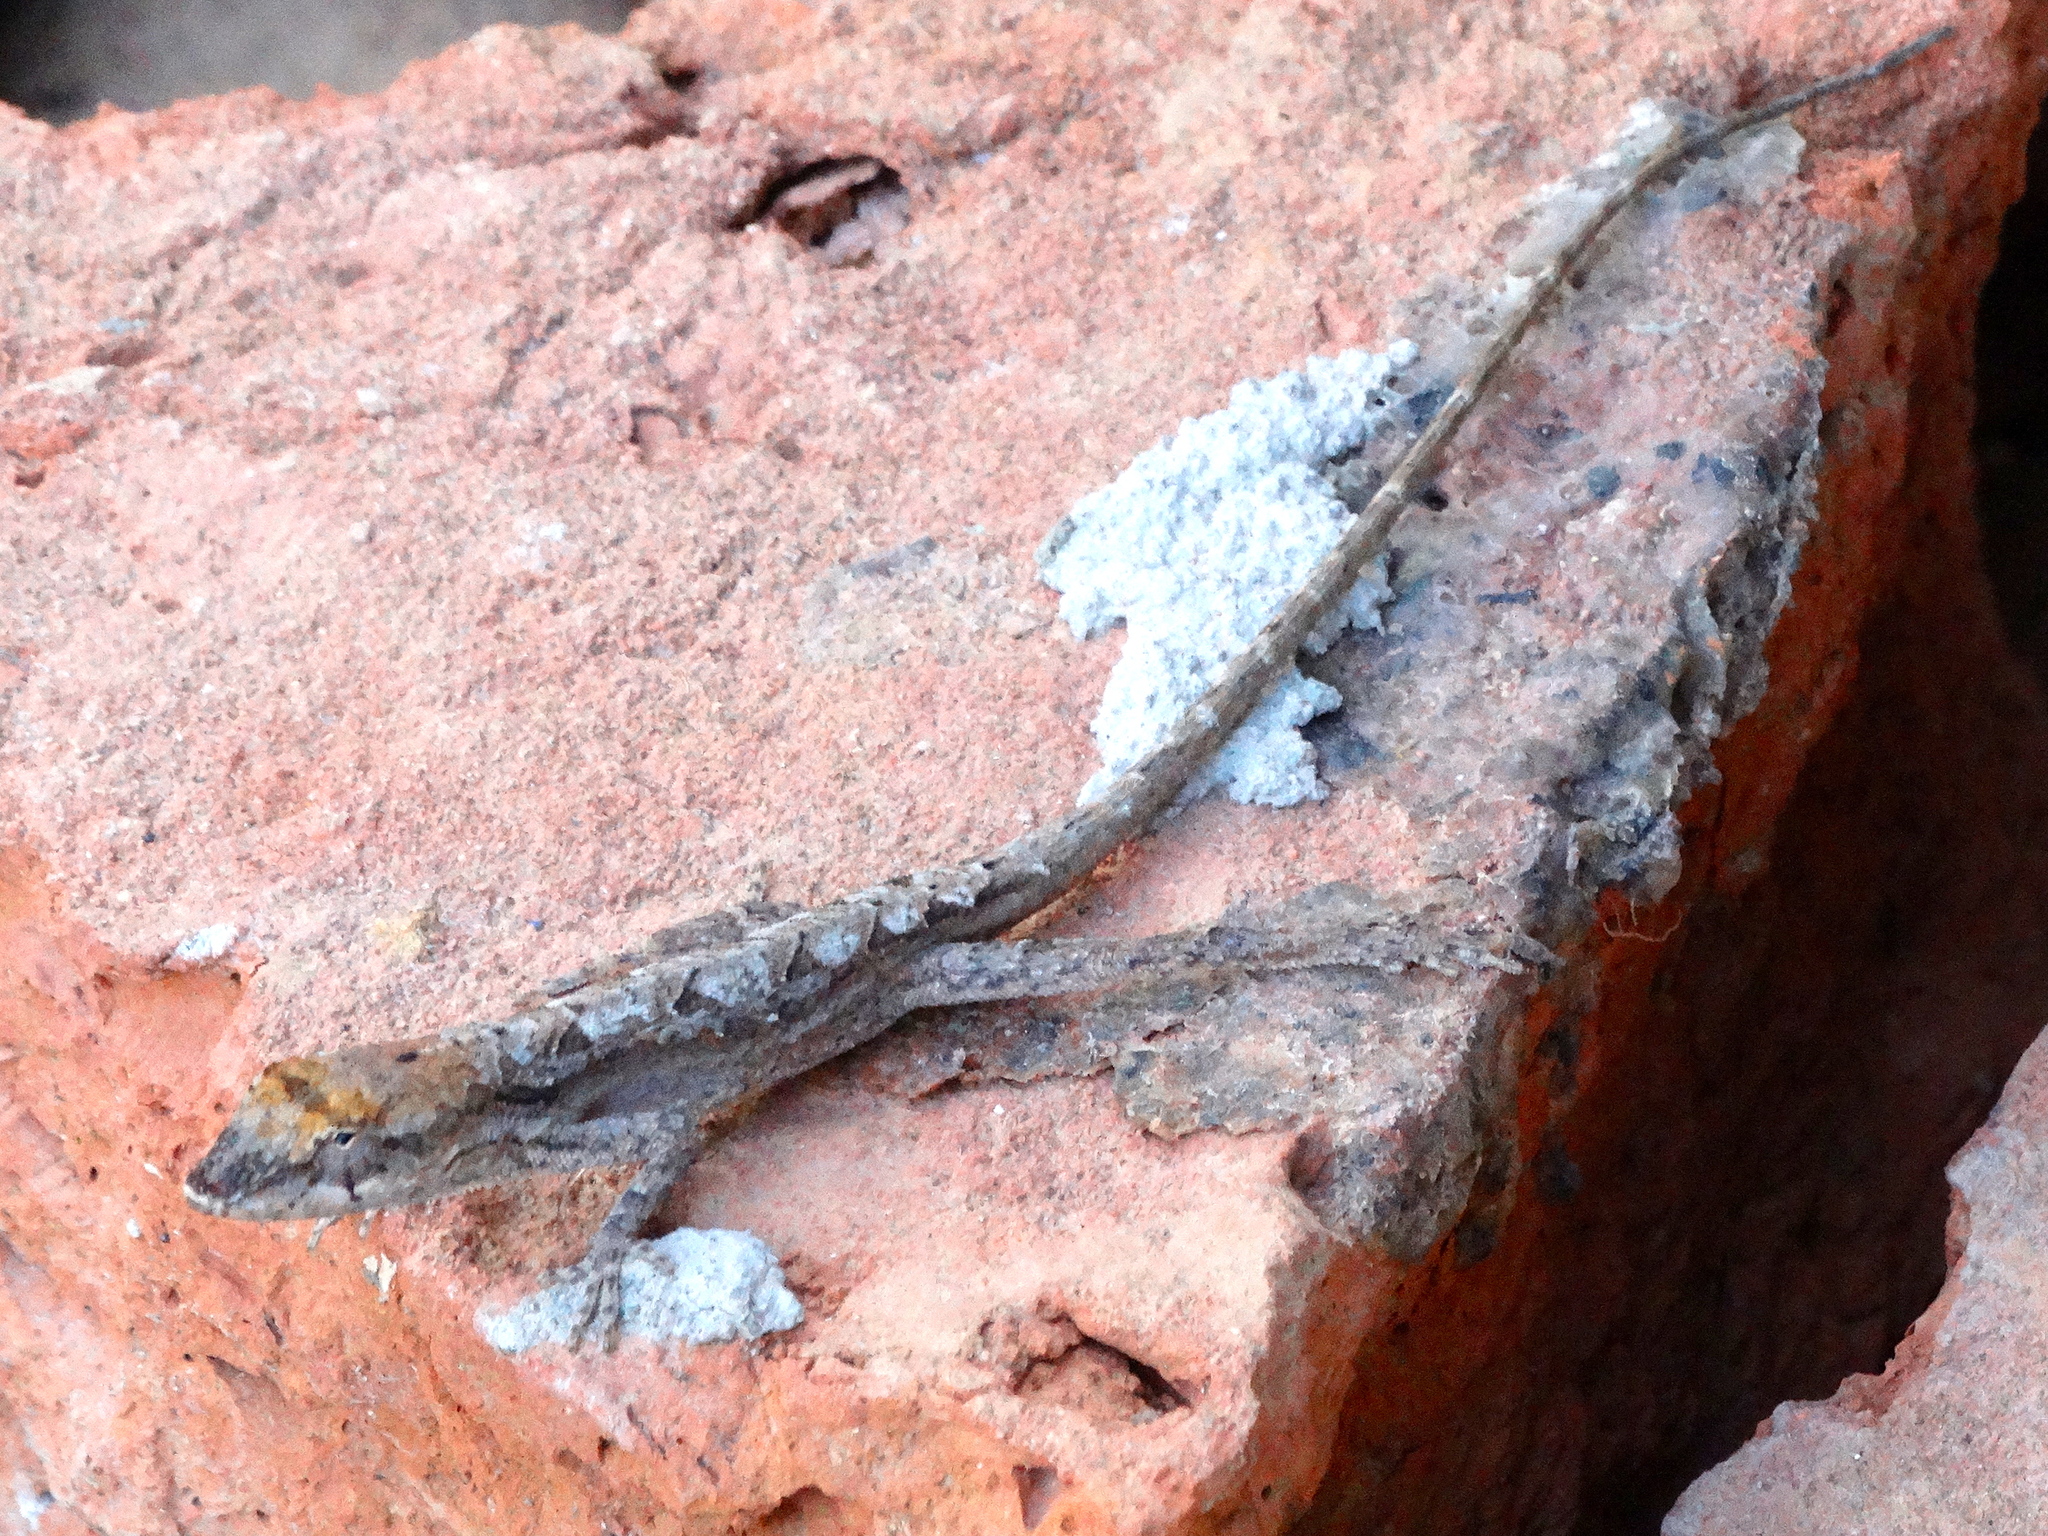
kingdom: Animalia
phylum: Chordata
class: Squamata
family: Dactyloidae
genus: Anolis
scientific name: Anolis nebulosus
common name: Clouded anole
